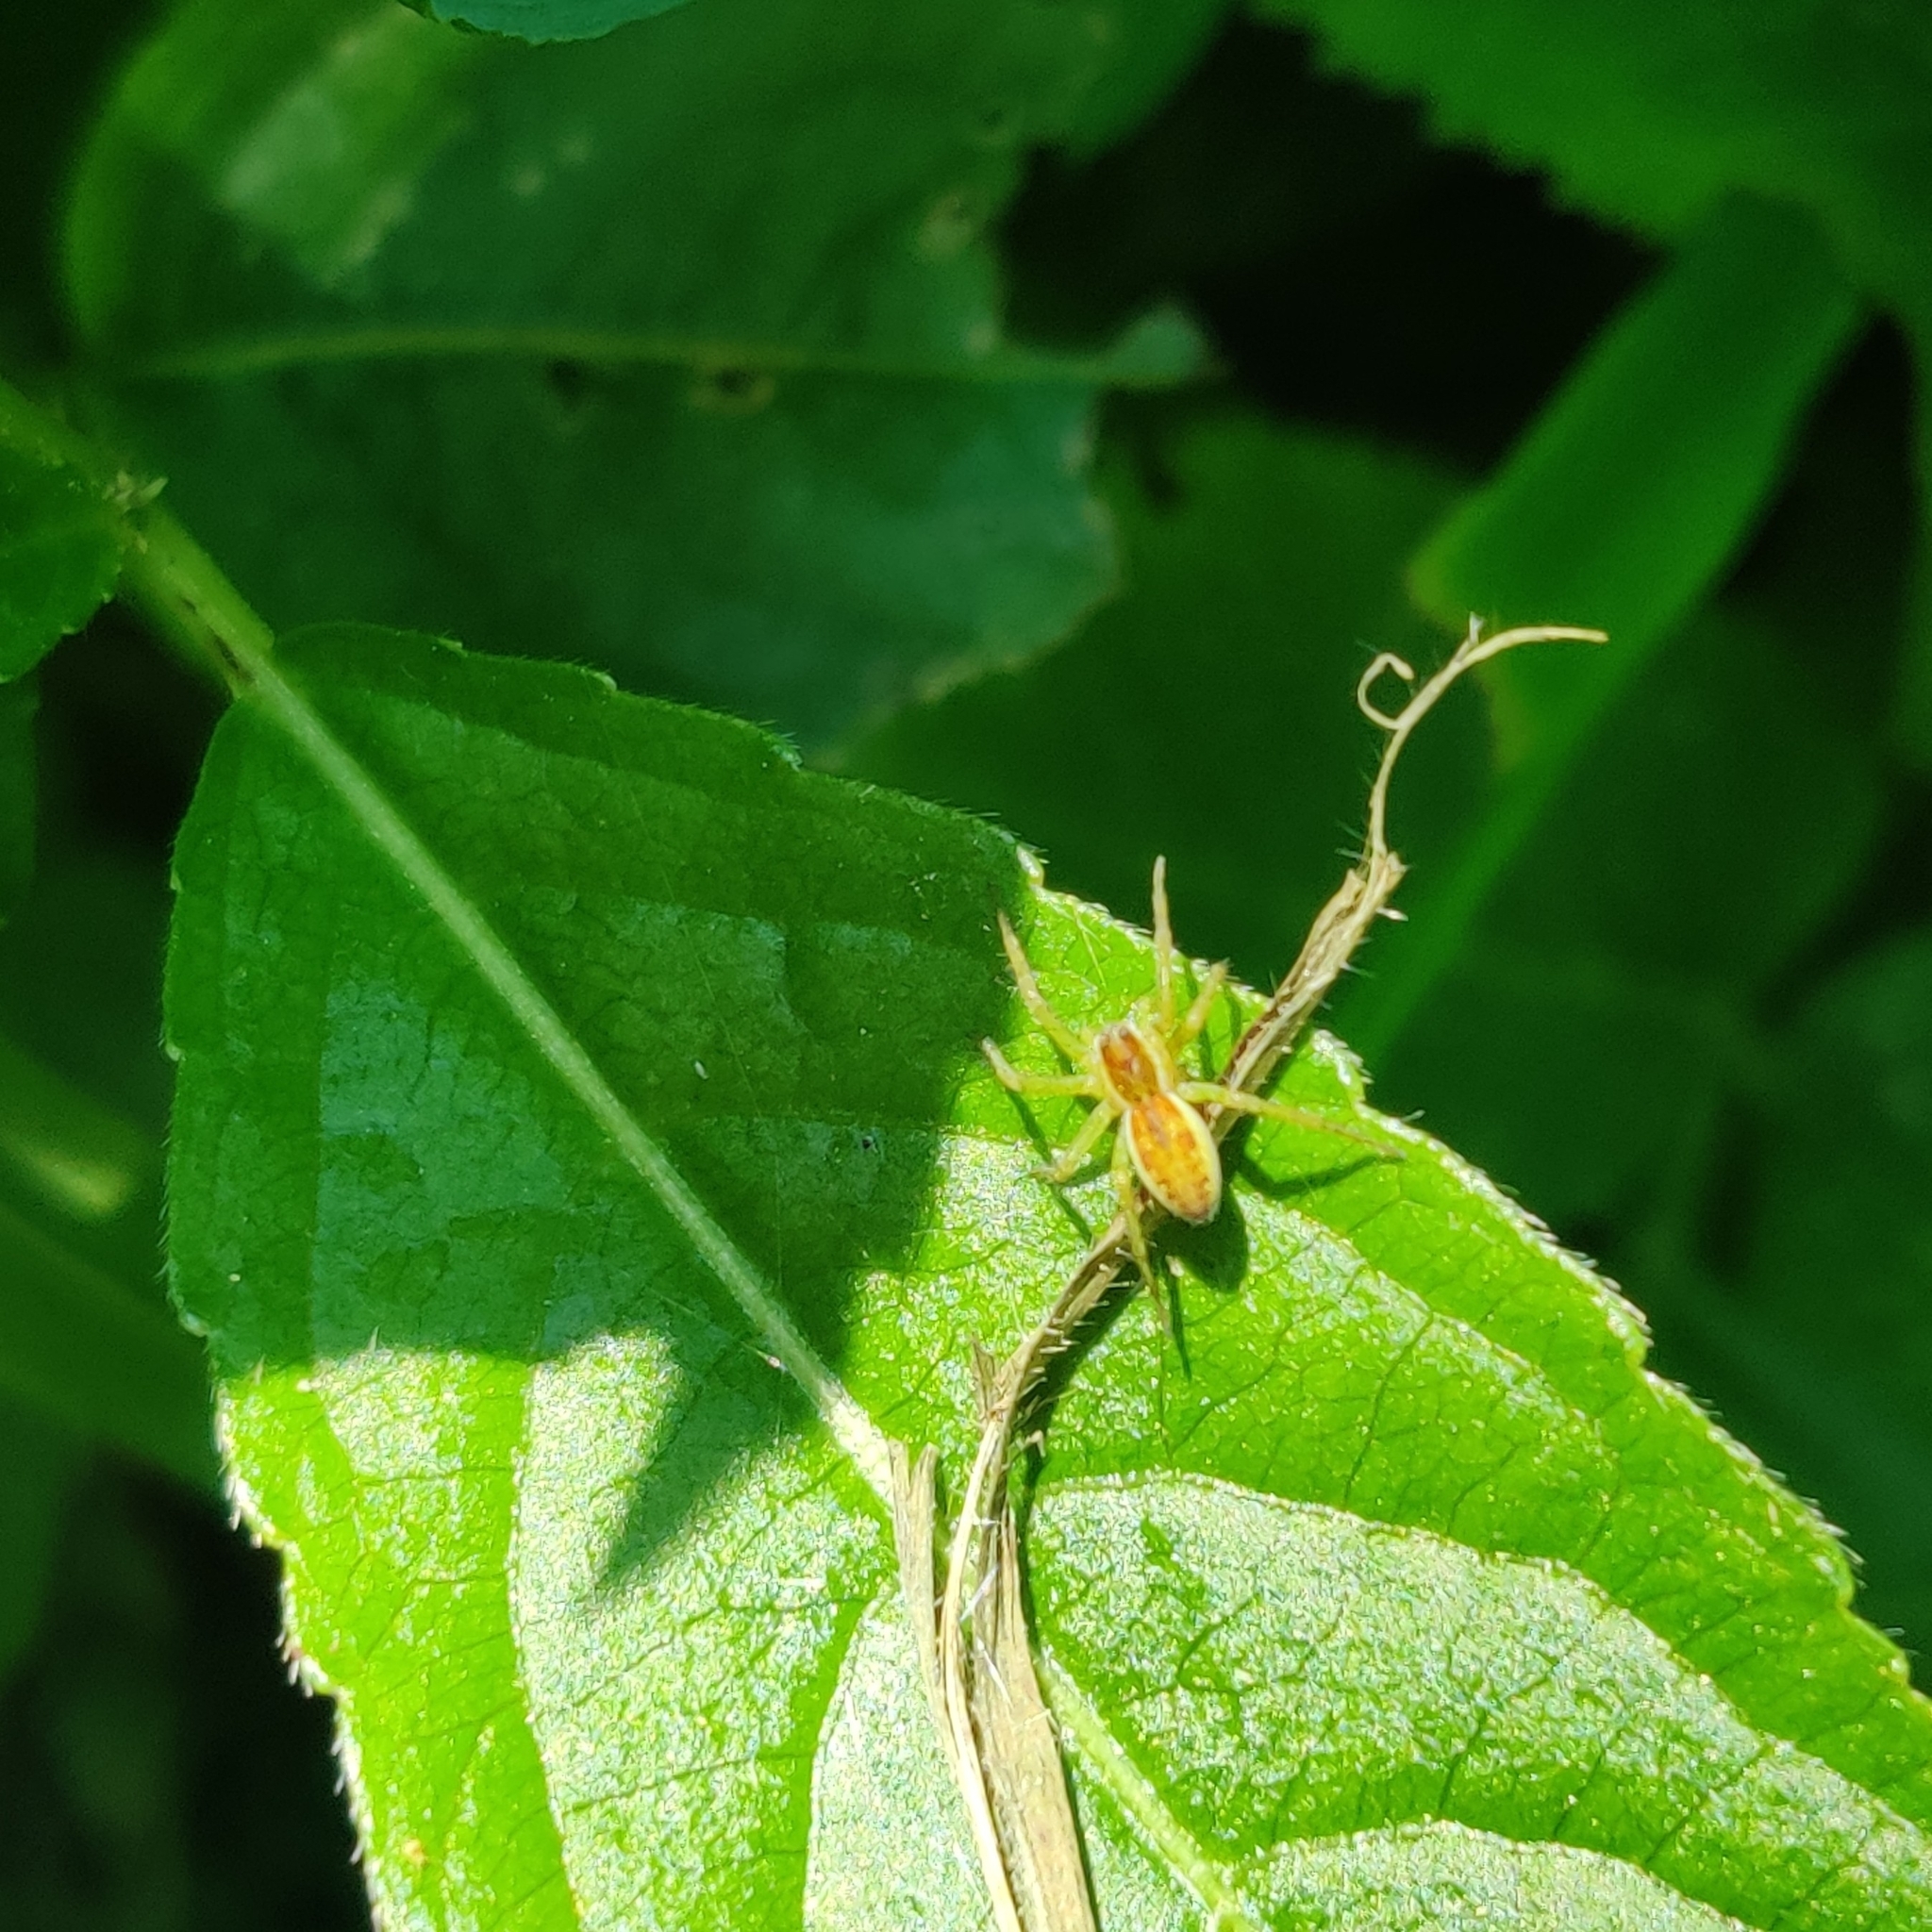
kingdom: Animalia
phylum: Arthropoda
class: Arachnida
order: Araneae
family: Pisauridae
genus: Dolomedes
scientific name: Dolomedes
